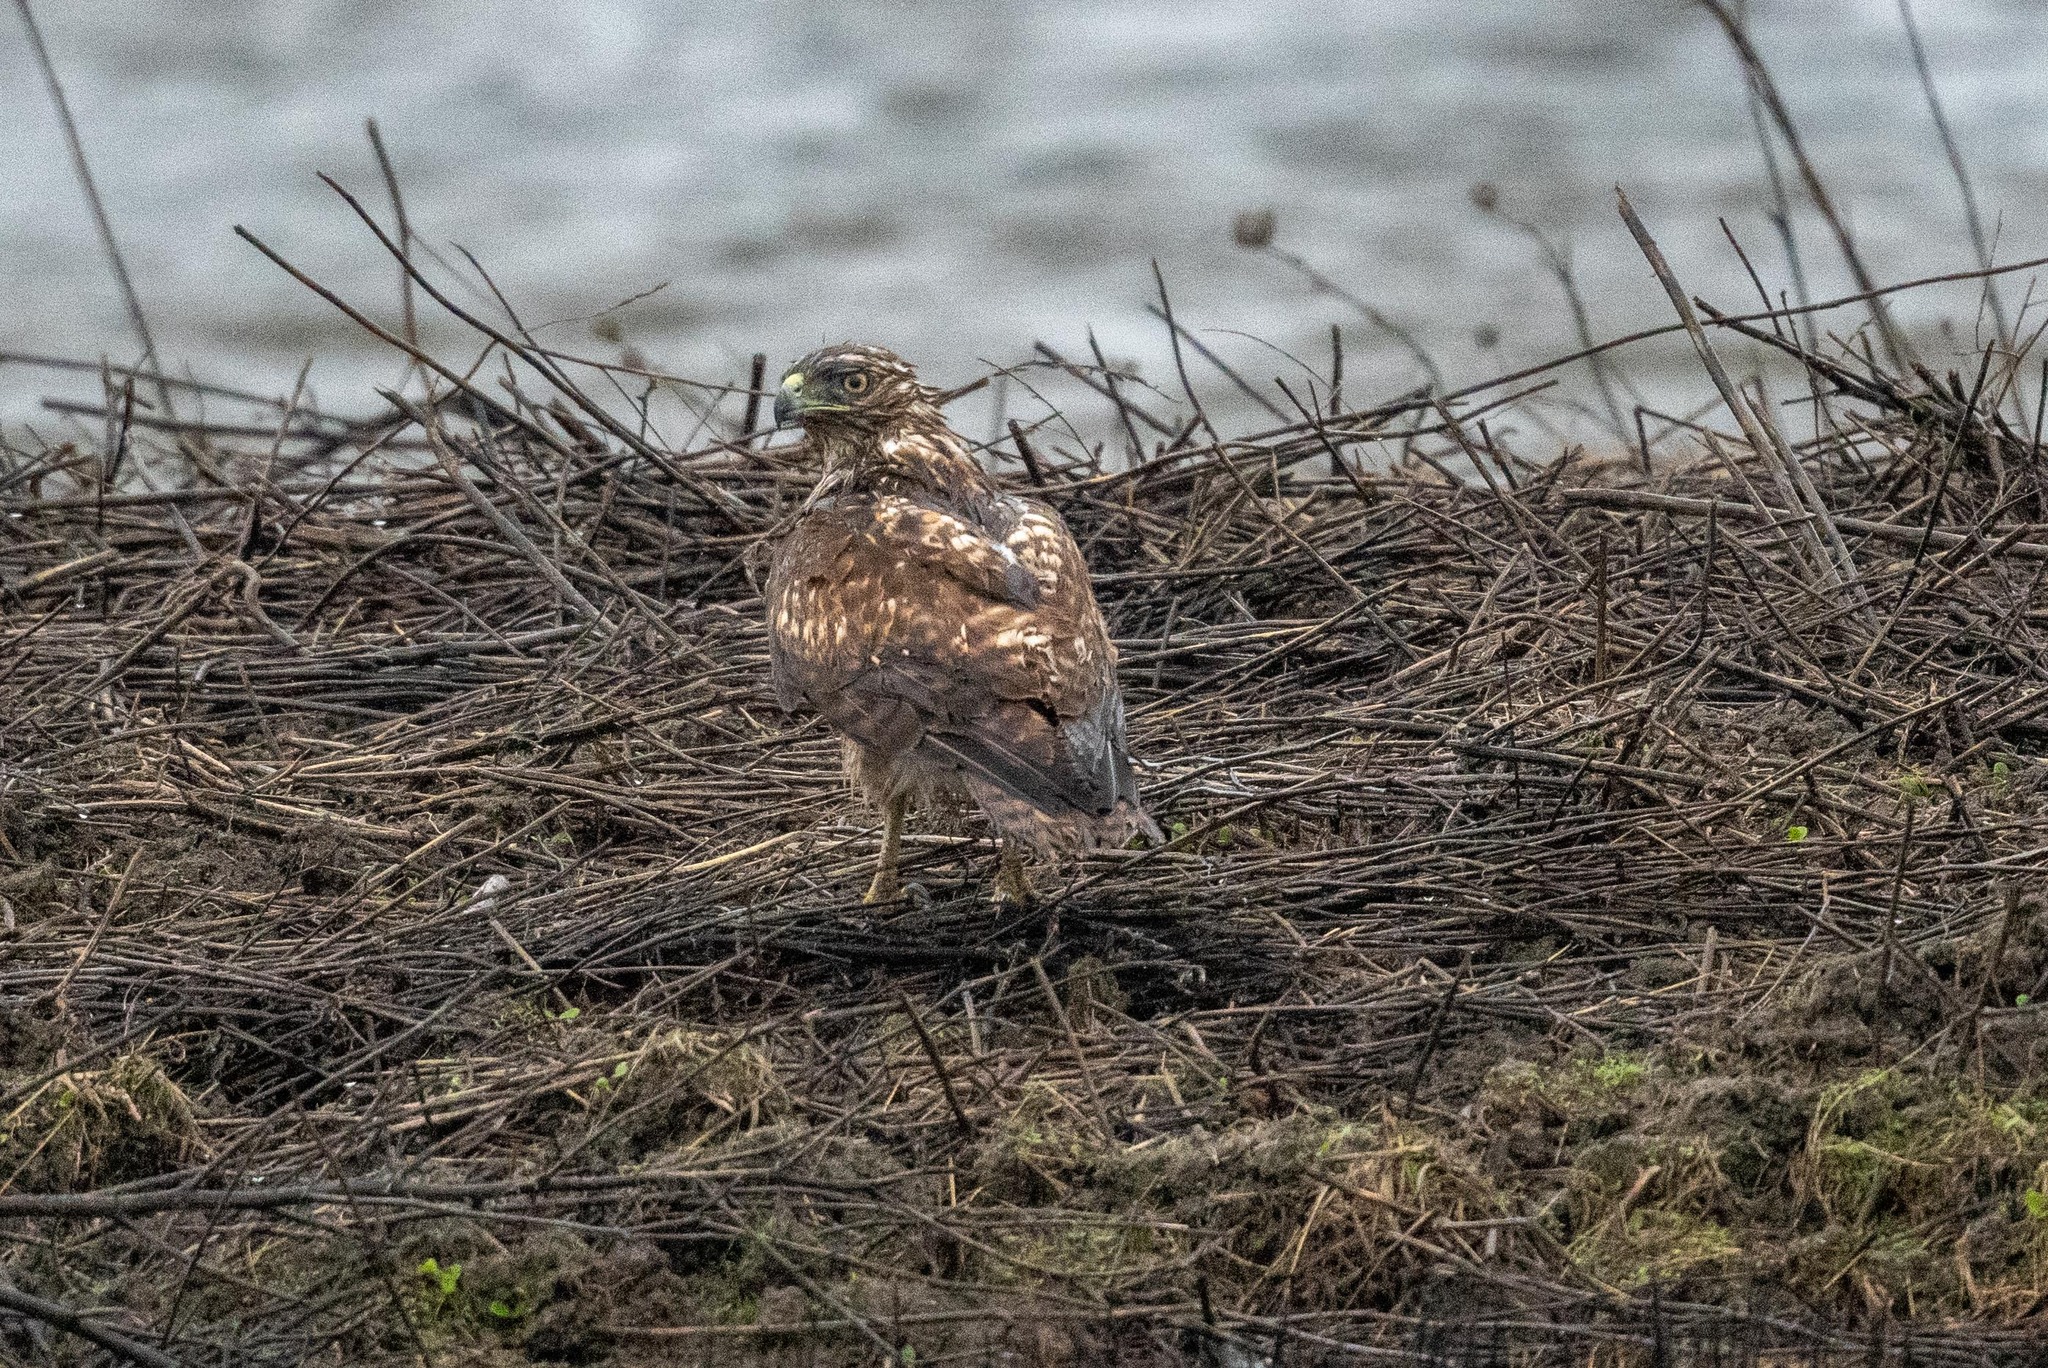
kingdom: Animalia
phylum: Chordata
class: Aves
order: Accipitriformes
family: Accipitridae
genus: Buteo
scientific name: Buteo jamaicensis
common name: Red-tailed hawk
